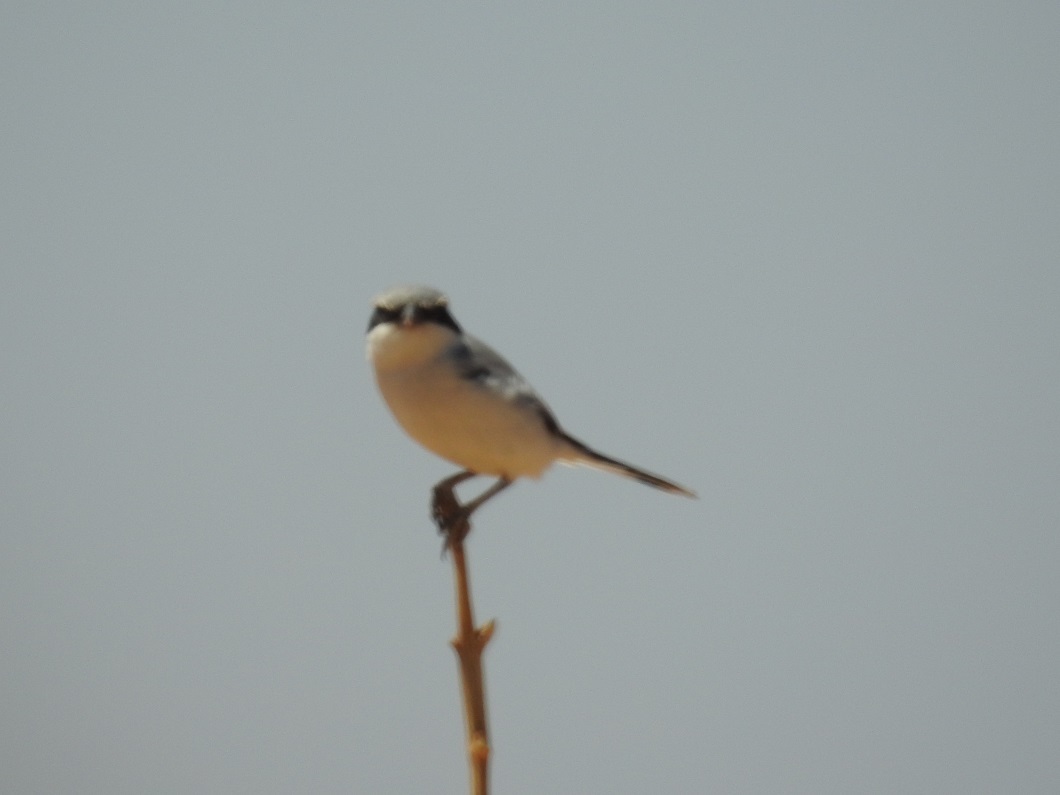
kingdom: Animalia
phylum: Chordata
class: Aves
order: Passeriformes
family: Laniidae
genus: Lanius
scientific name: Lanius excubitor
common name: Great grey shrike
